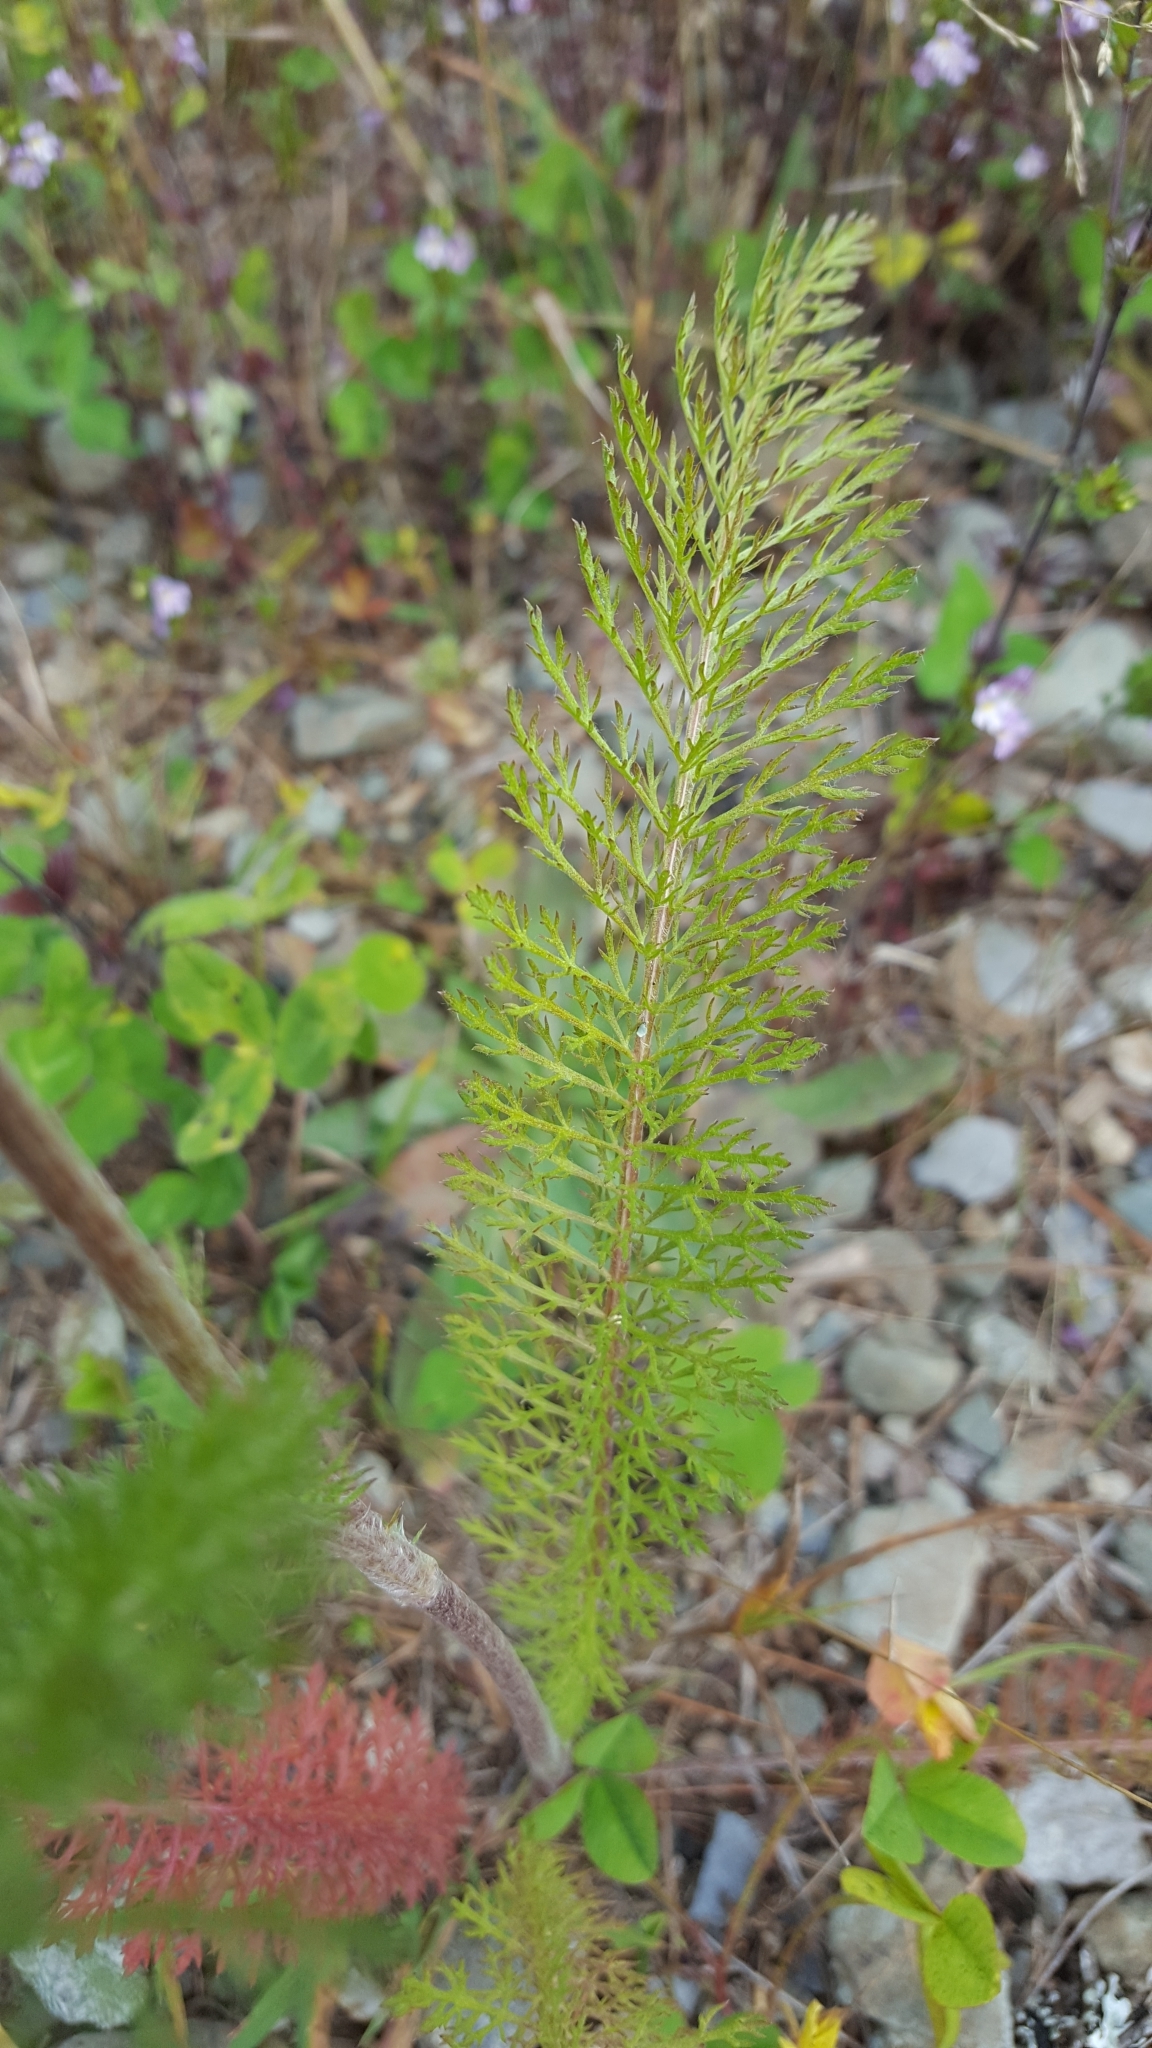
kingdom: Plantae
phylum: Tracheophyta
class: Magnoliopsida
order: Asterales
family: Asteraceae
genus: Achillea
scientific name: Achillea millefolium
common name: Yarrow
